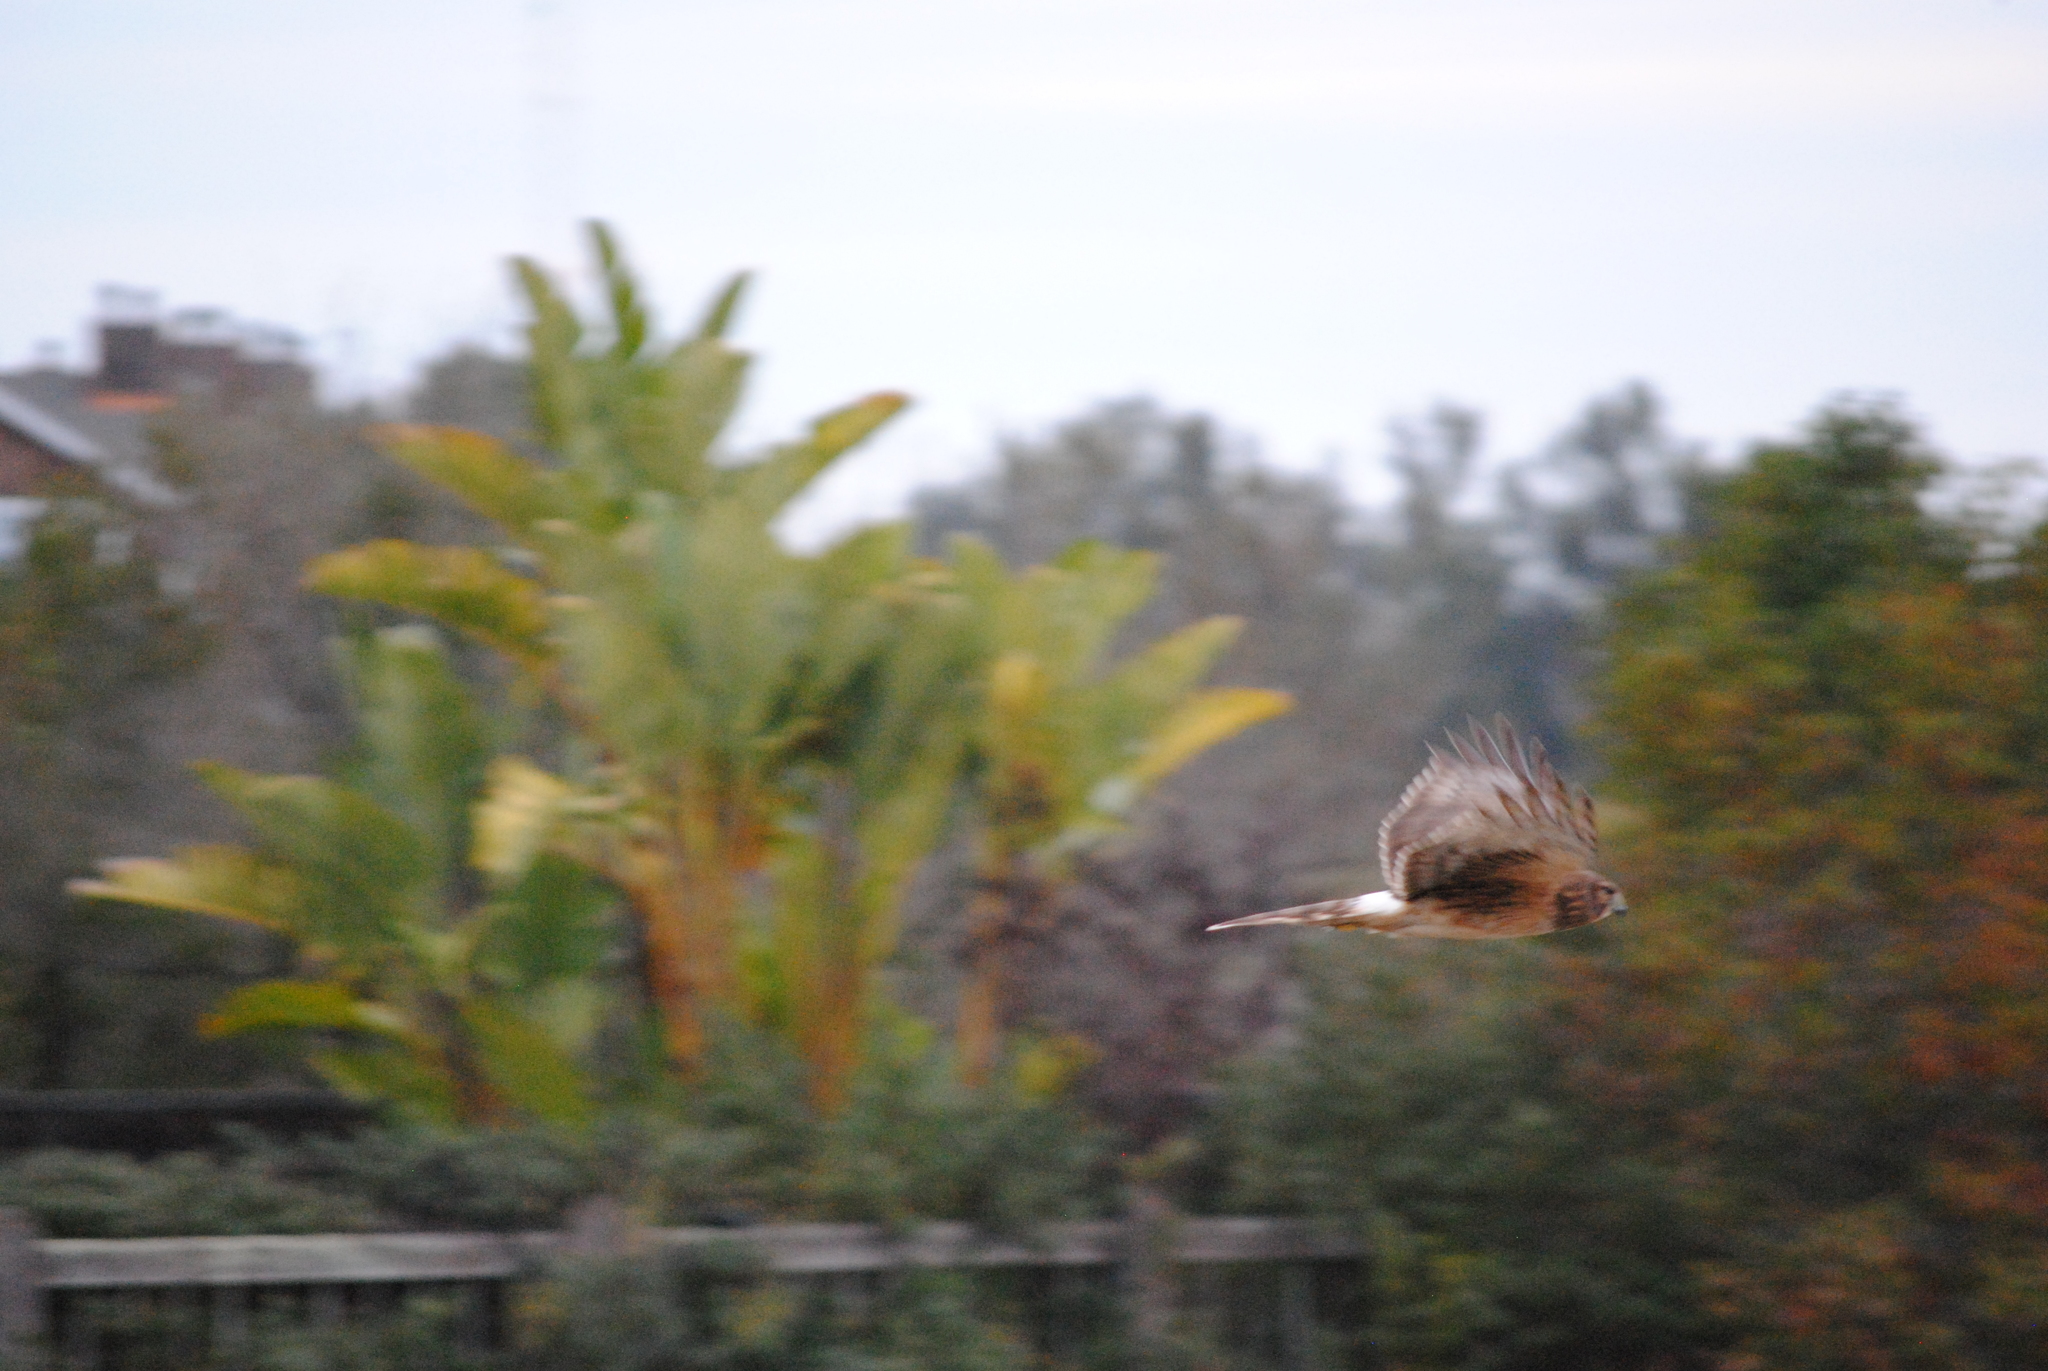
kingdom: Animalia
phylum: Chordata
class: Aves
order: Accipitriformes
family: Accipitridae
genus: Circus
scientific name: Circus cyaneus
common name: Hen harrier
